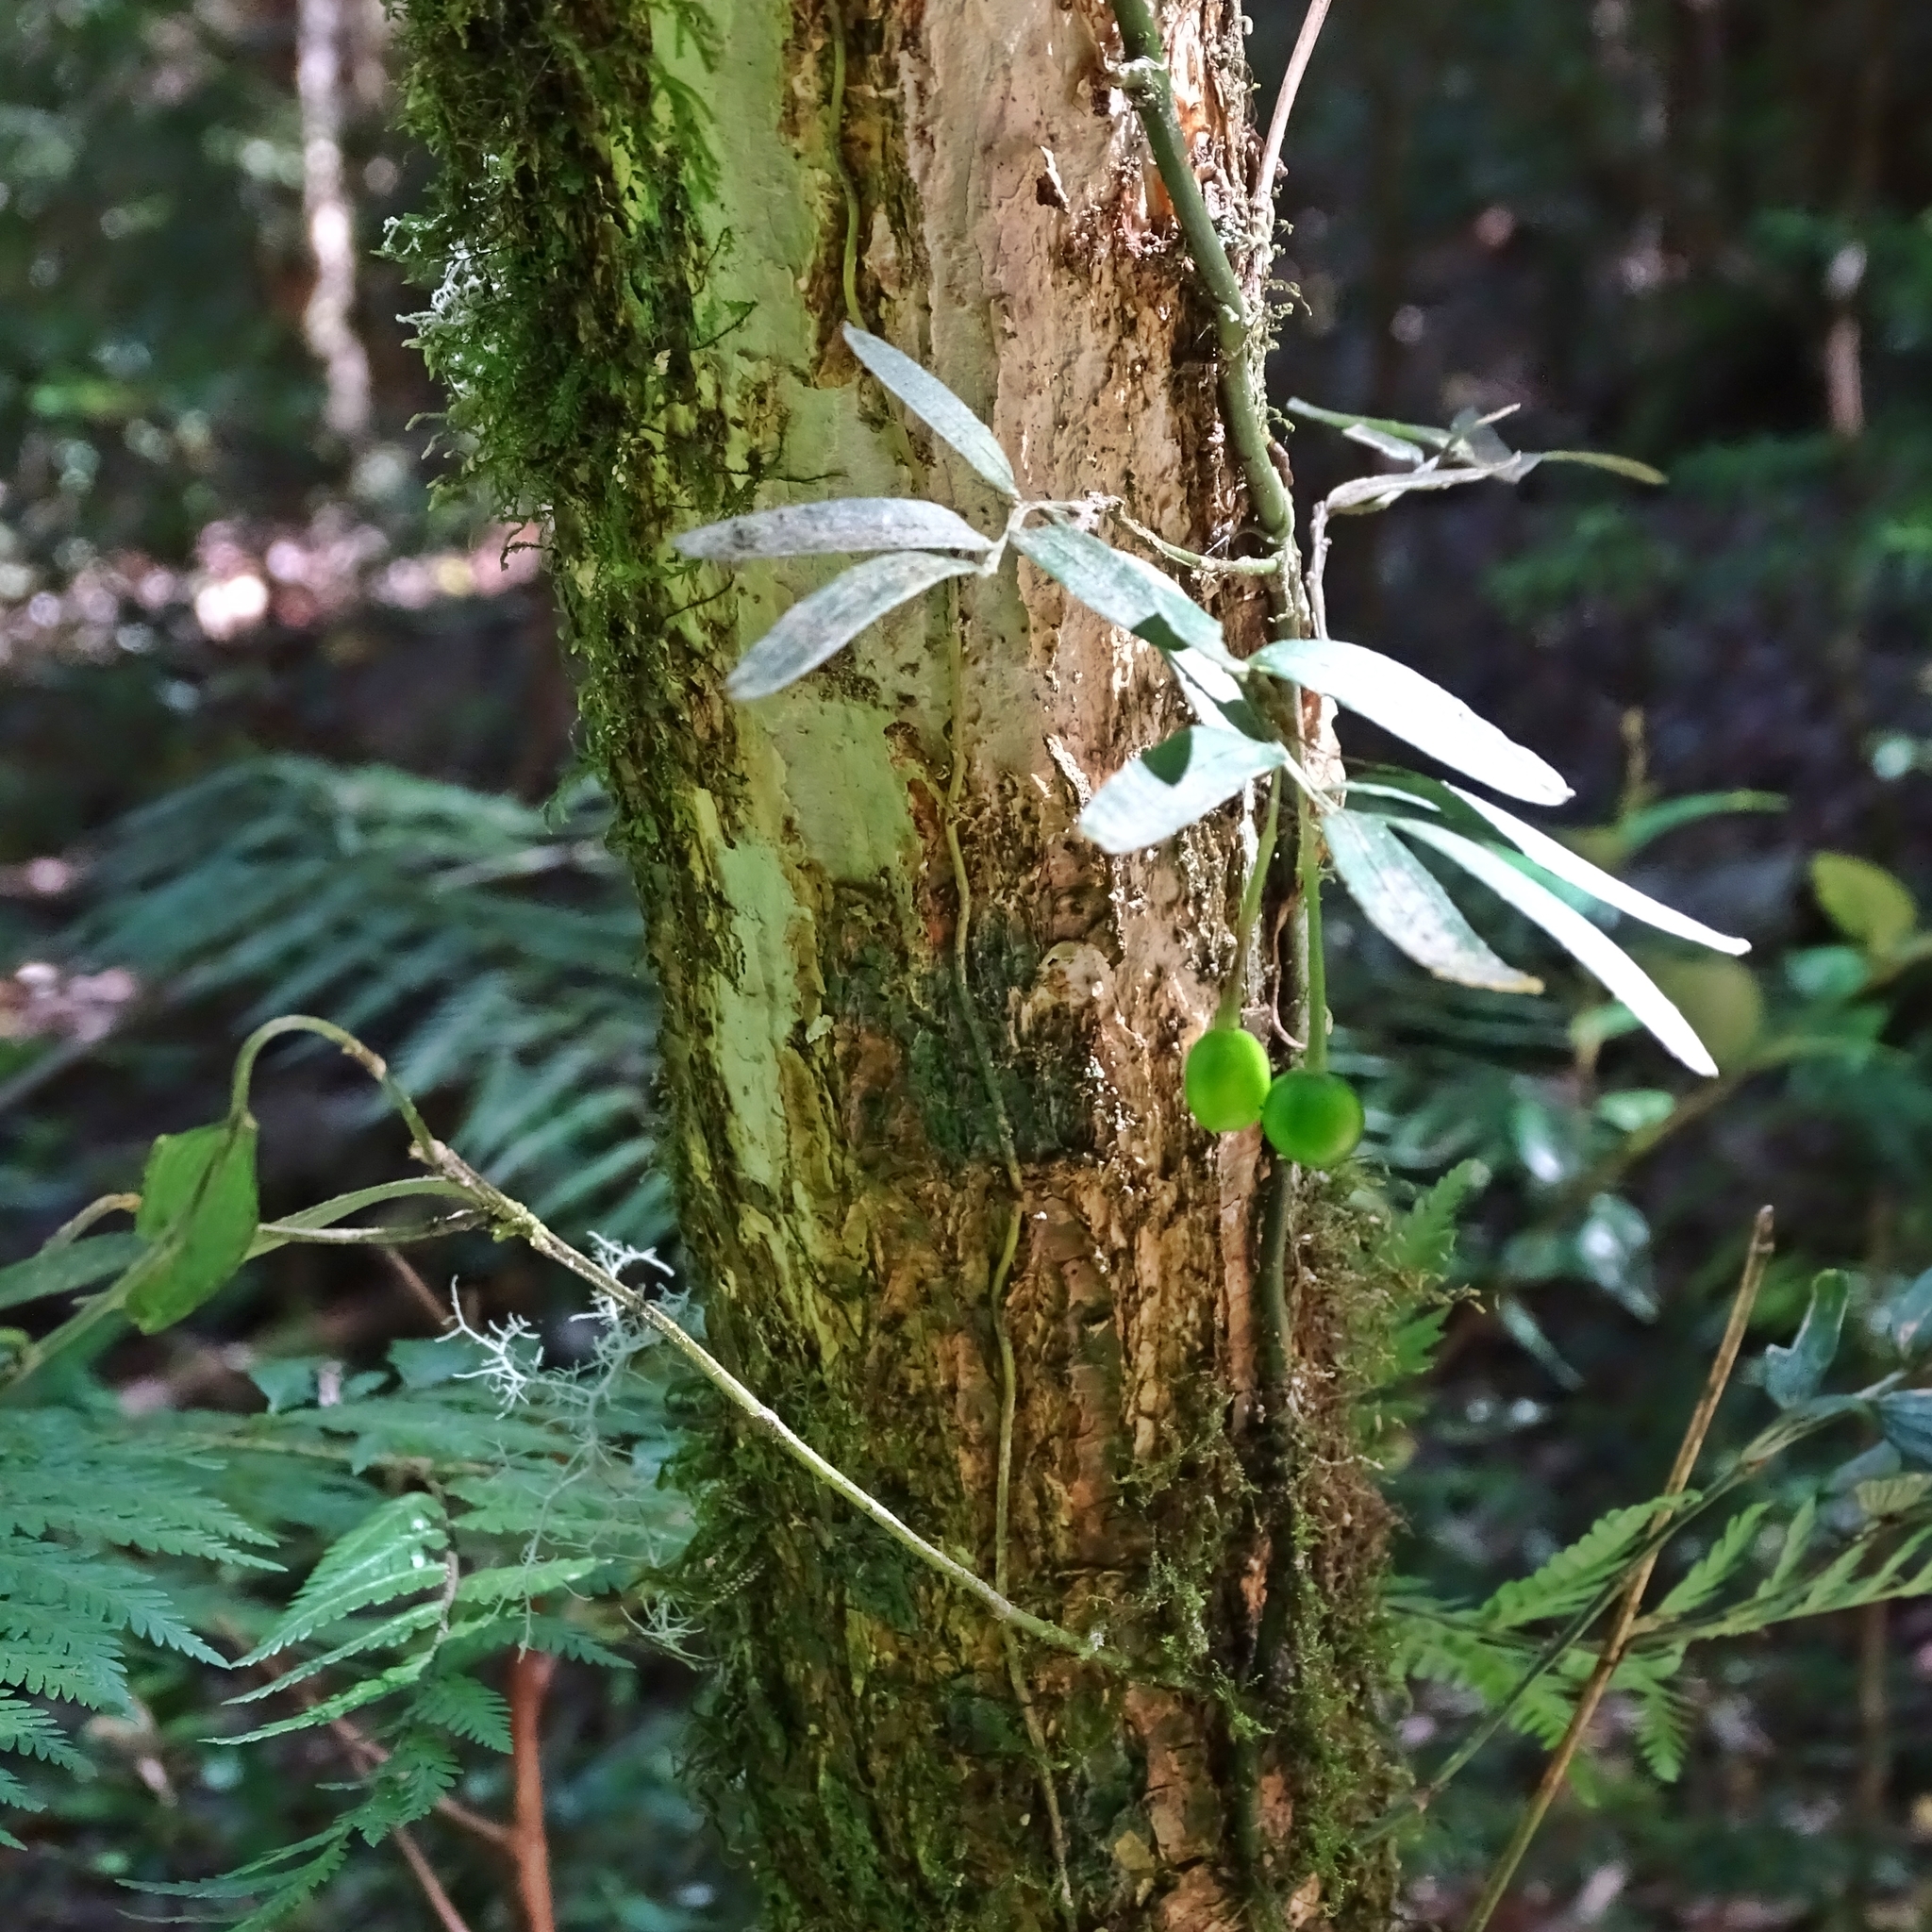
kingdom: Plantae
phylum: Tracheophyta
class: Liliopsida
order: Liliales
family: Alstroemeriaceae
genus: Luzuriaga
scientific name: Luzuriaga radicans
